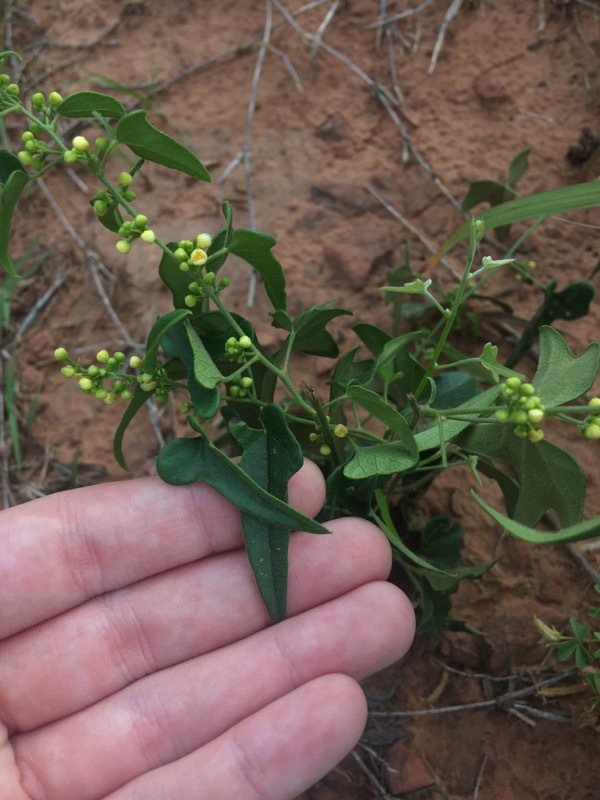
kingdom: Plantae
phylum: Tracheophyta
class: Magnoliopsida
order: Ranunculales
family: Menispermaceae
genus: Cocculus
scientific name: Cocculus carolinus
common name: Carolina moonseed
